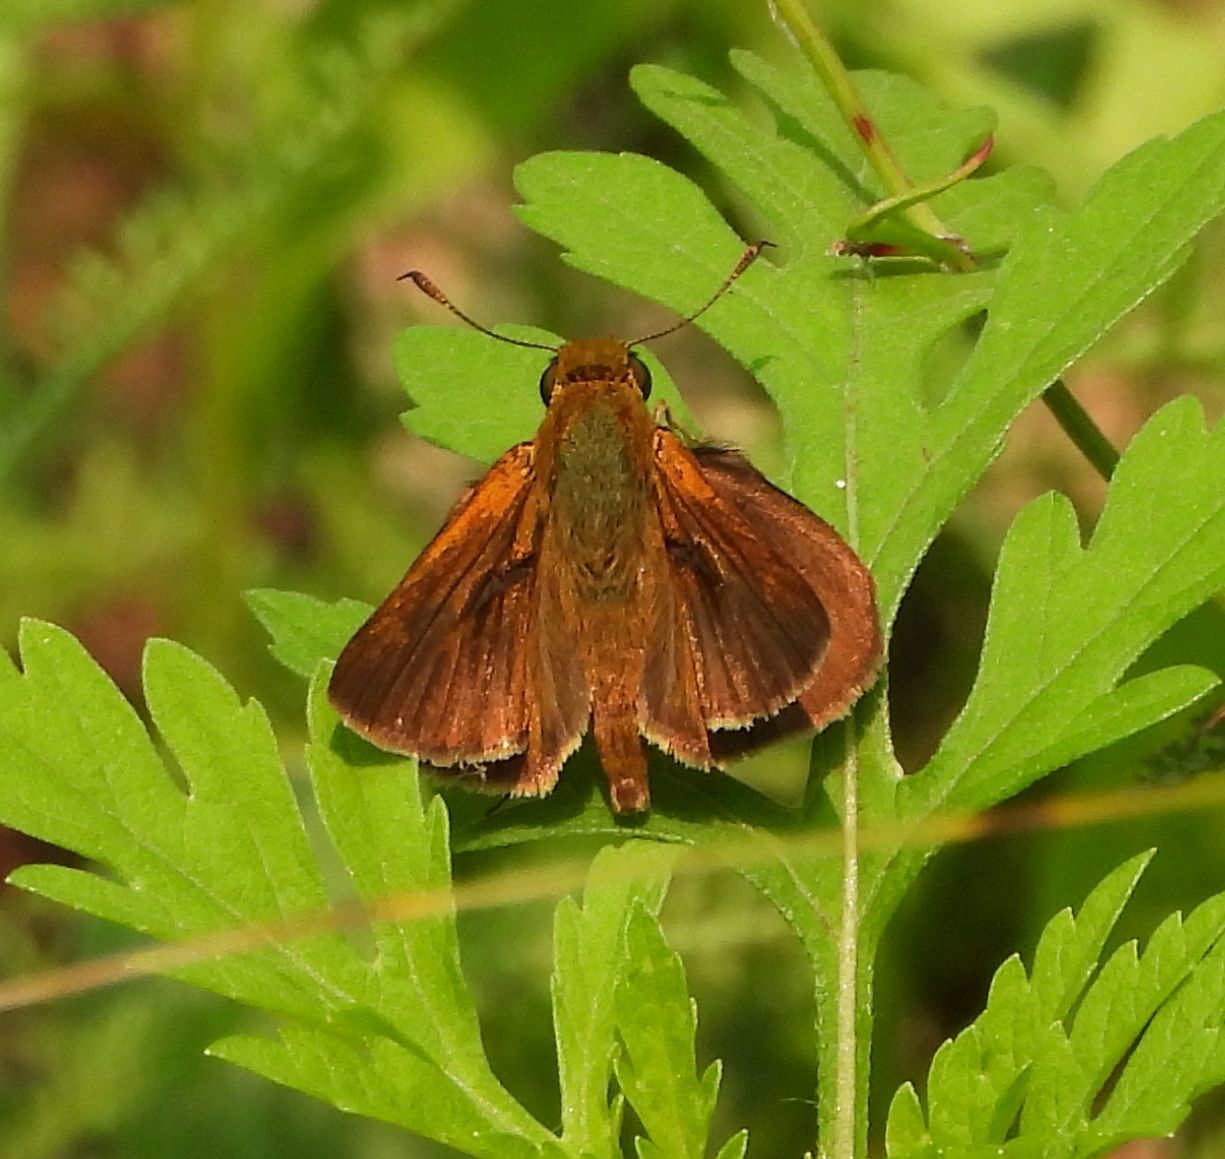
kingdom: Animalia
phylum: Arthropoda
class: Insecta
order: Lepidoptera
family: Hesperiidae
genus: Euphyes
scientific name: Euphyes vestris
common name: Dun skipper
